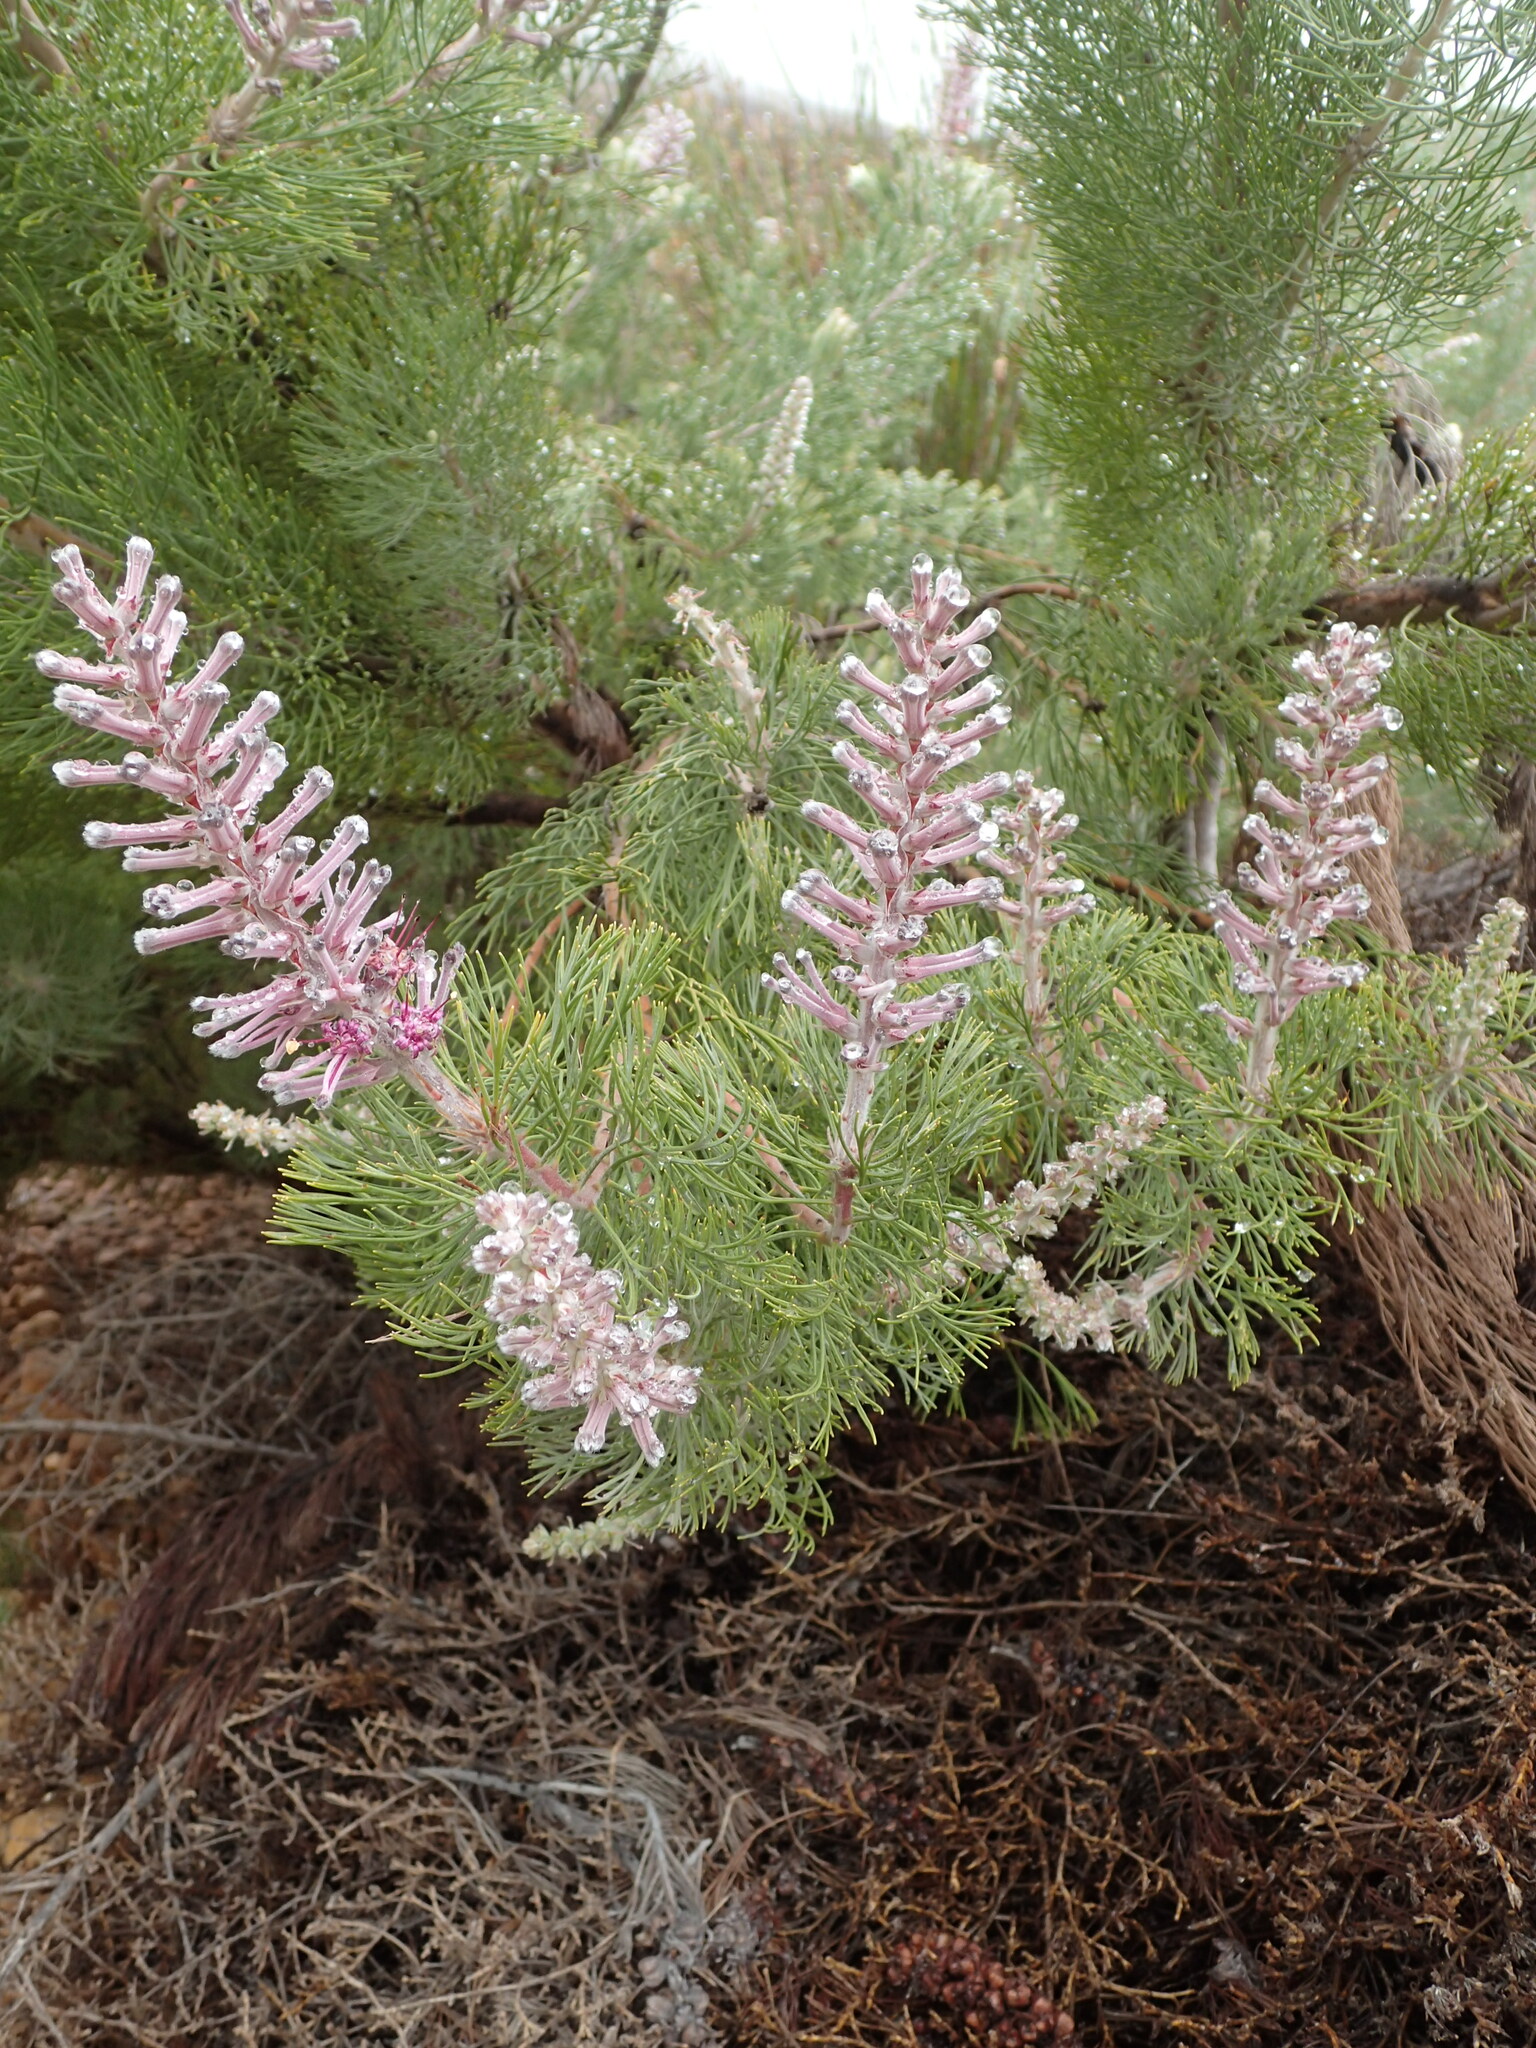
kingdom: Plantae
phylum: Tracheophyta
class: Magnoliopsida
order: Proteales
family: Proteaceae
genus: Paranomus
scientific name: Paranomus bracteolaris
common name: Bokkeveld tree sceptre
